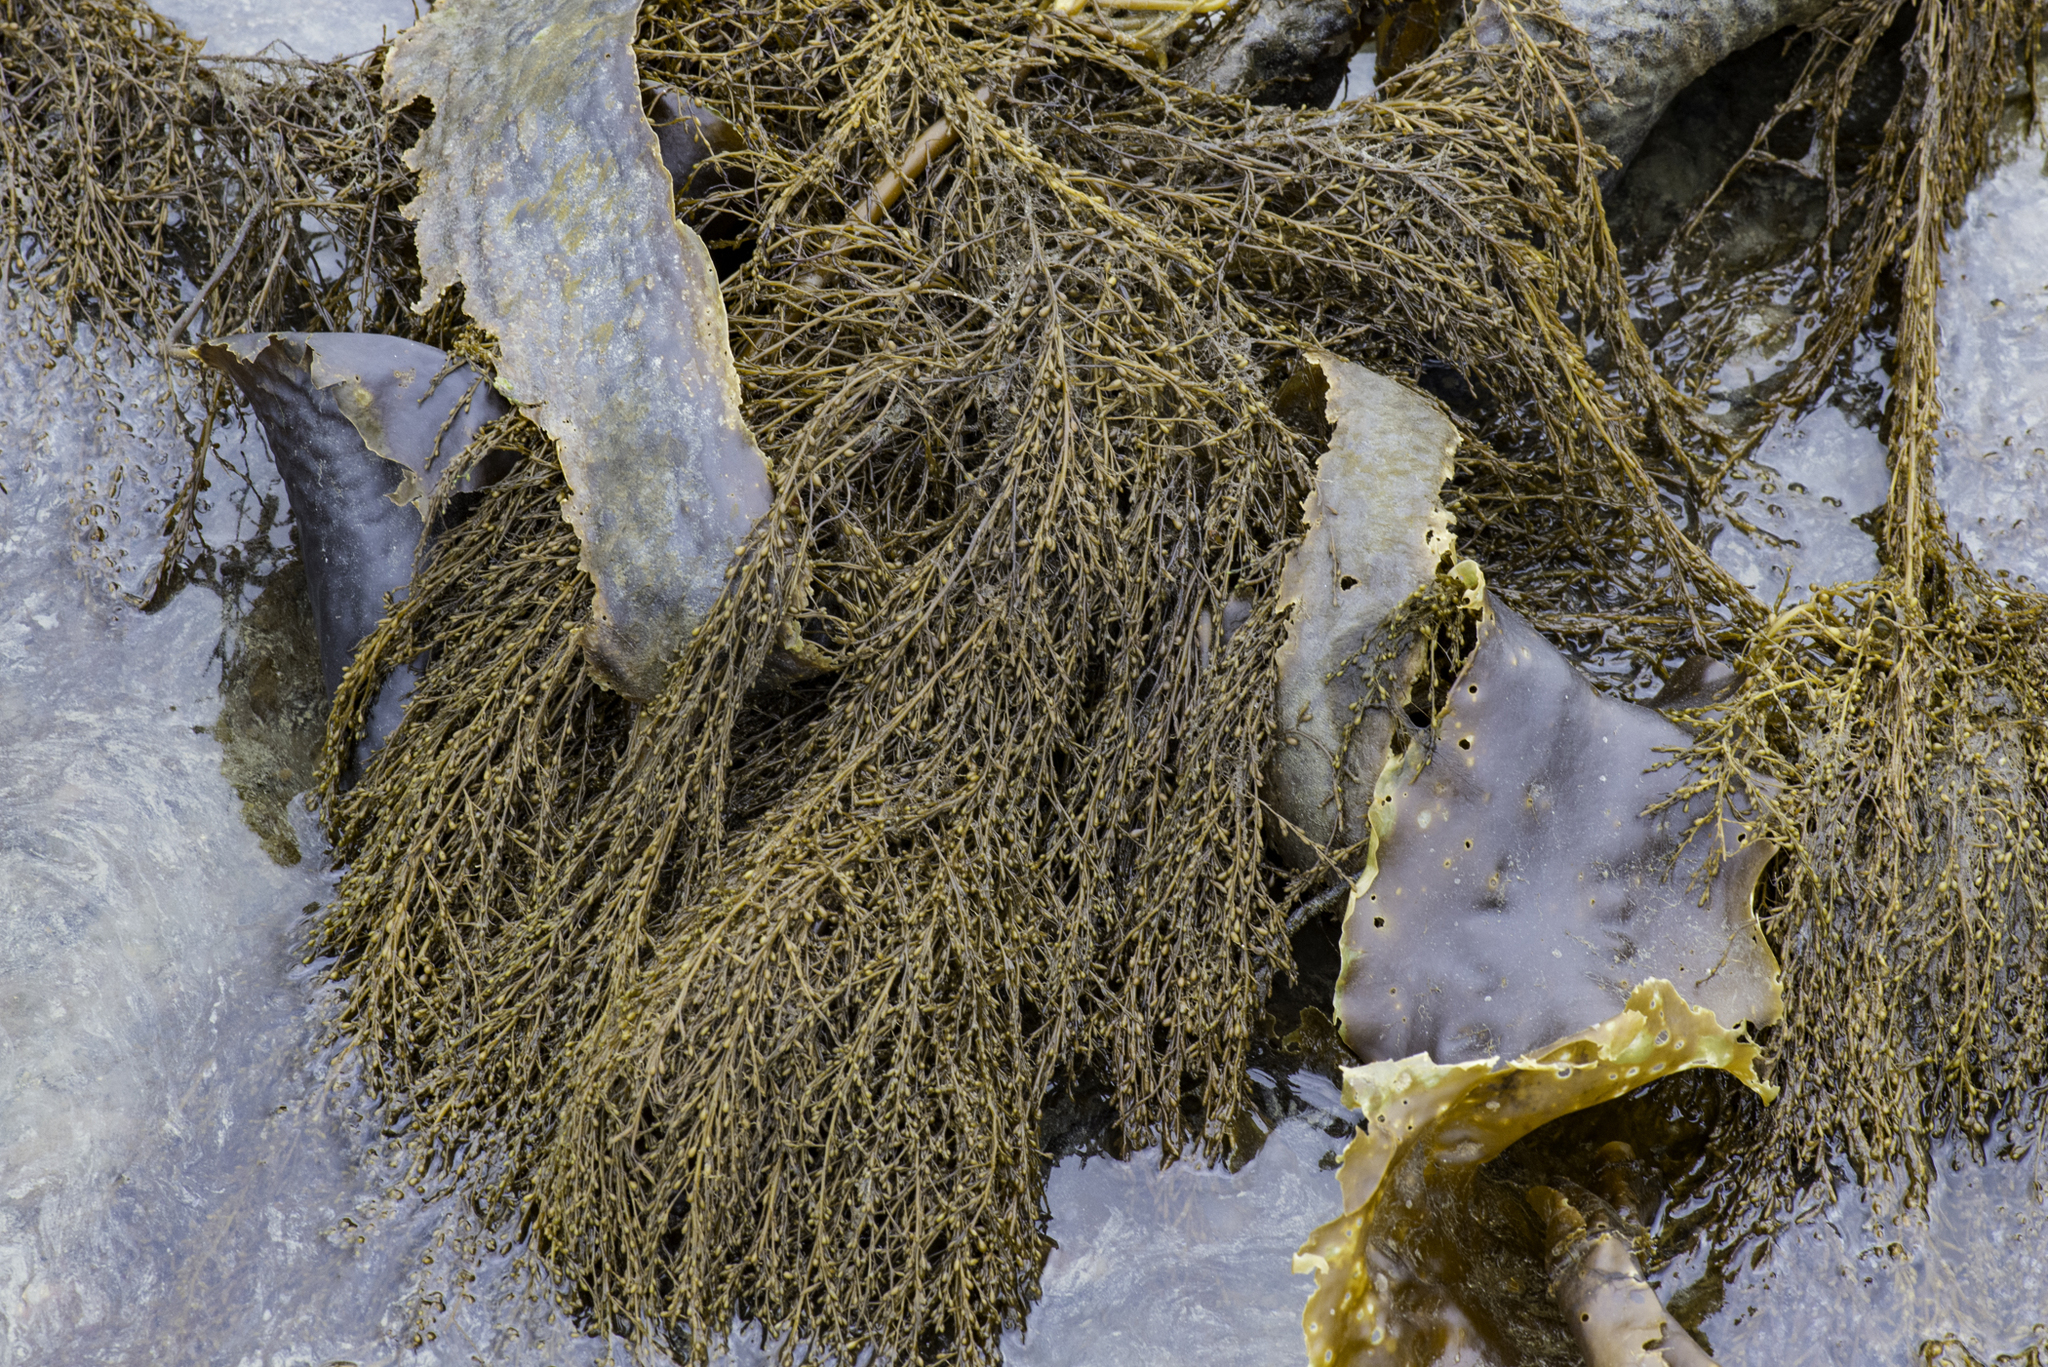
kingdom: Chromista
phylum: Ochrophyta
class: Phaeophyceae
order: Fucales
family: Sargassaceae
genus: Sargassum
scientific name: Sargassum muticum
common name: Japweed
